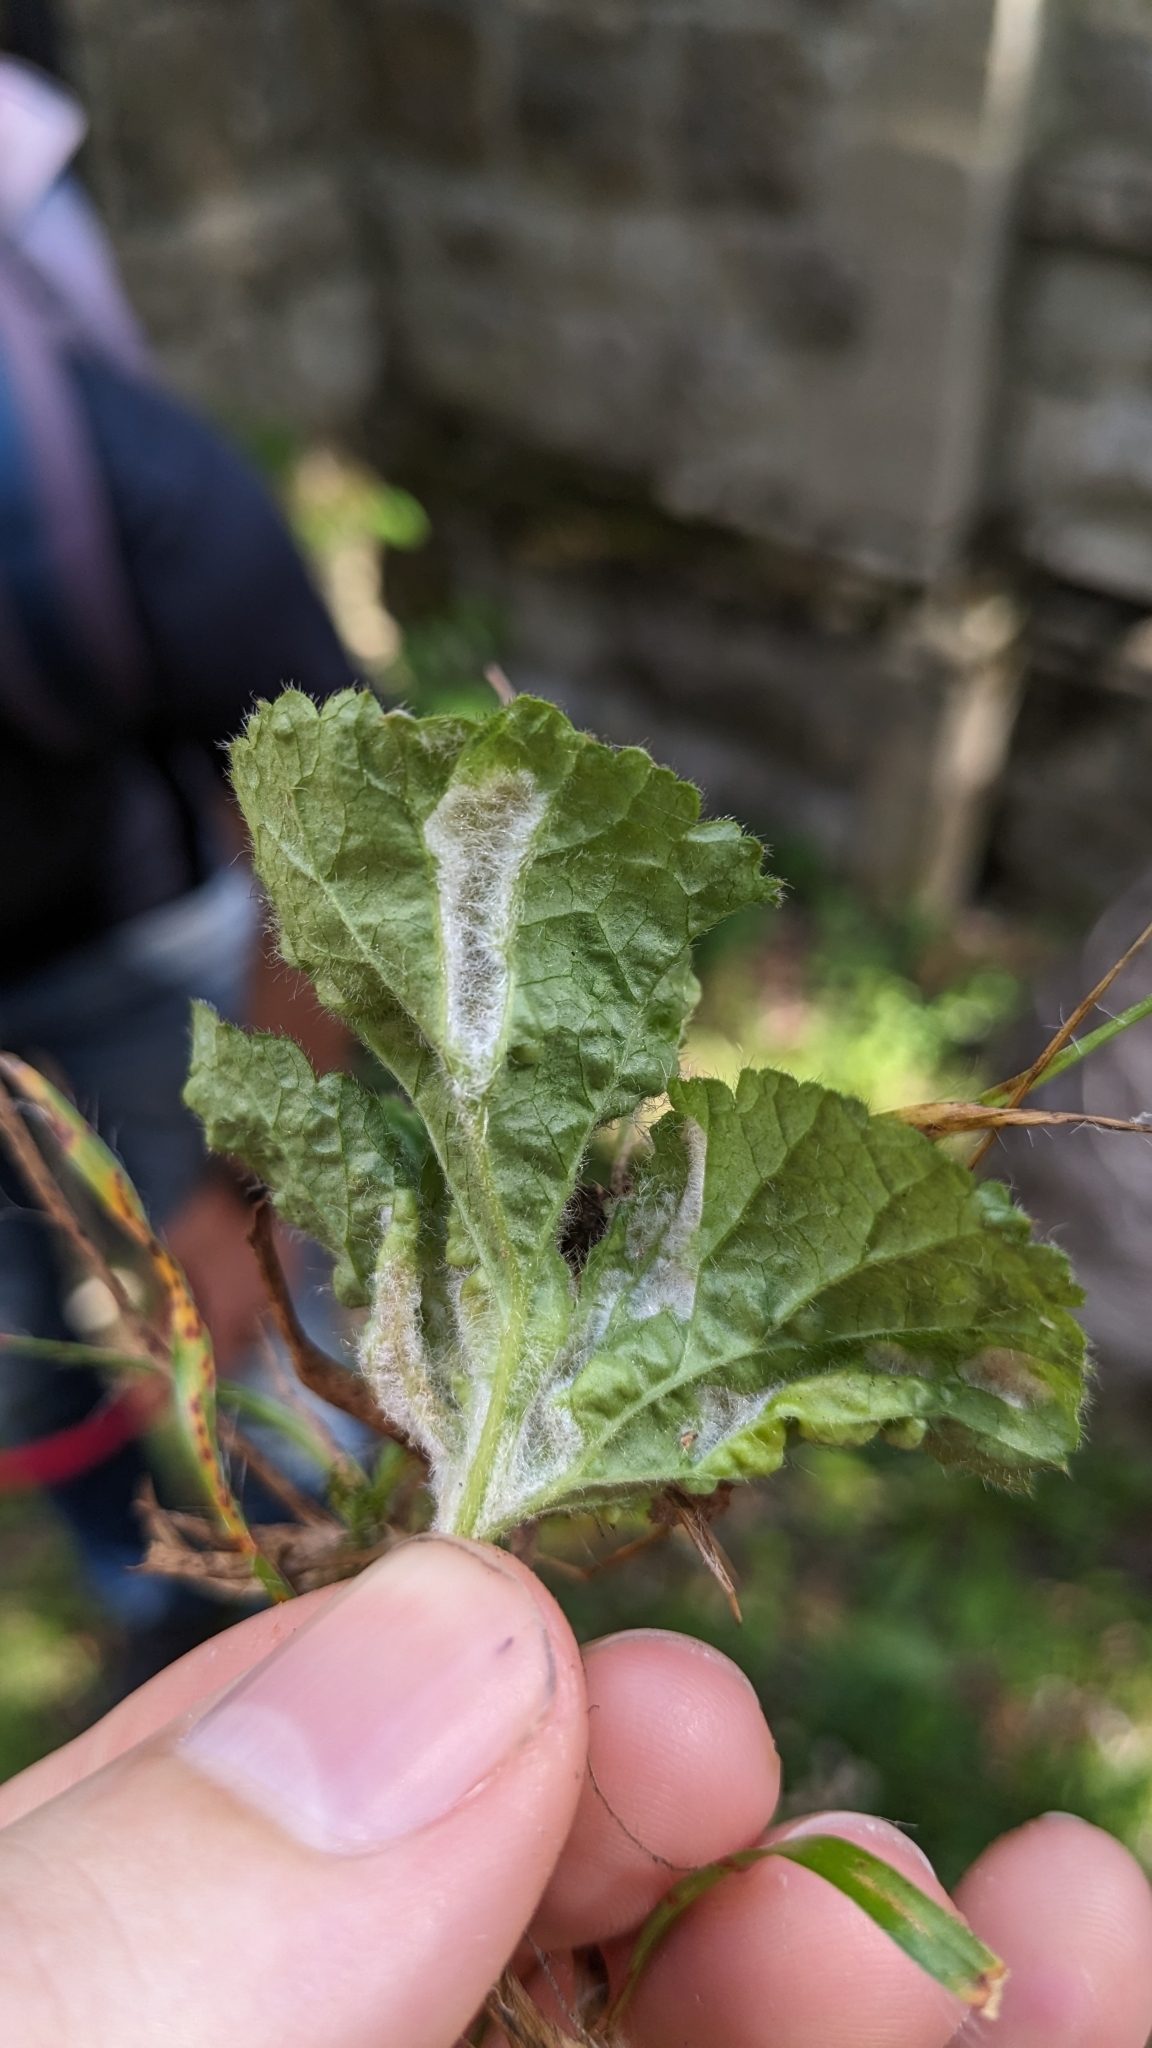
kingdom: Animalia
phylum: Arthropoda
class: Arachnida
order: Trombidiformes
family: Eriophyidae
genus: Cecidophyes
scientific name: Cecidophyes nudus
